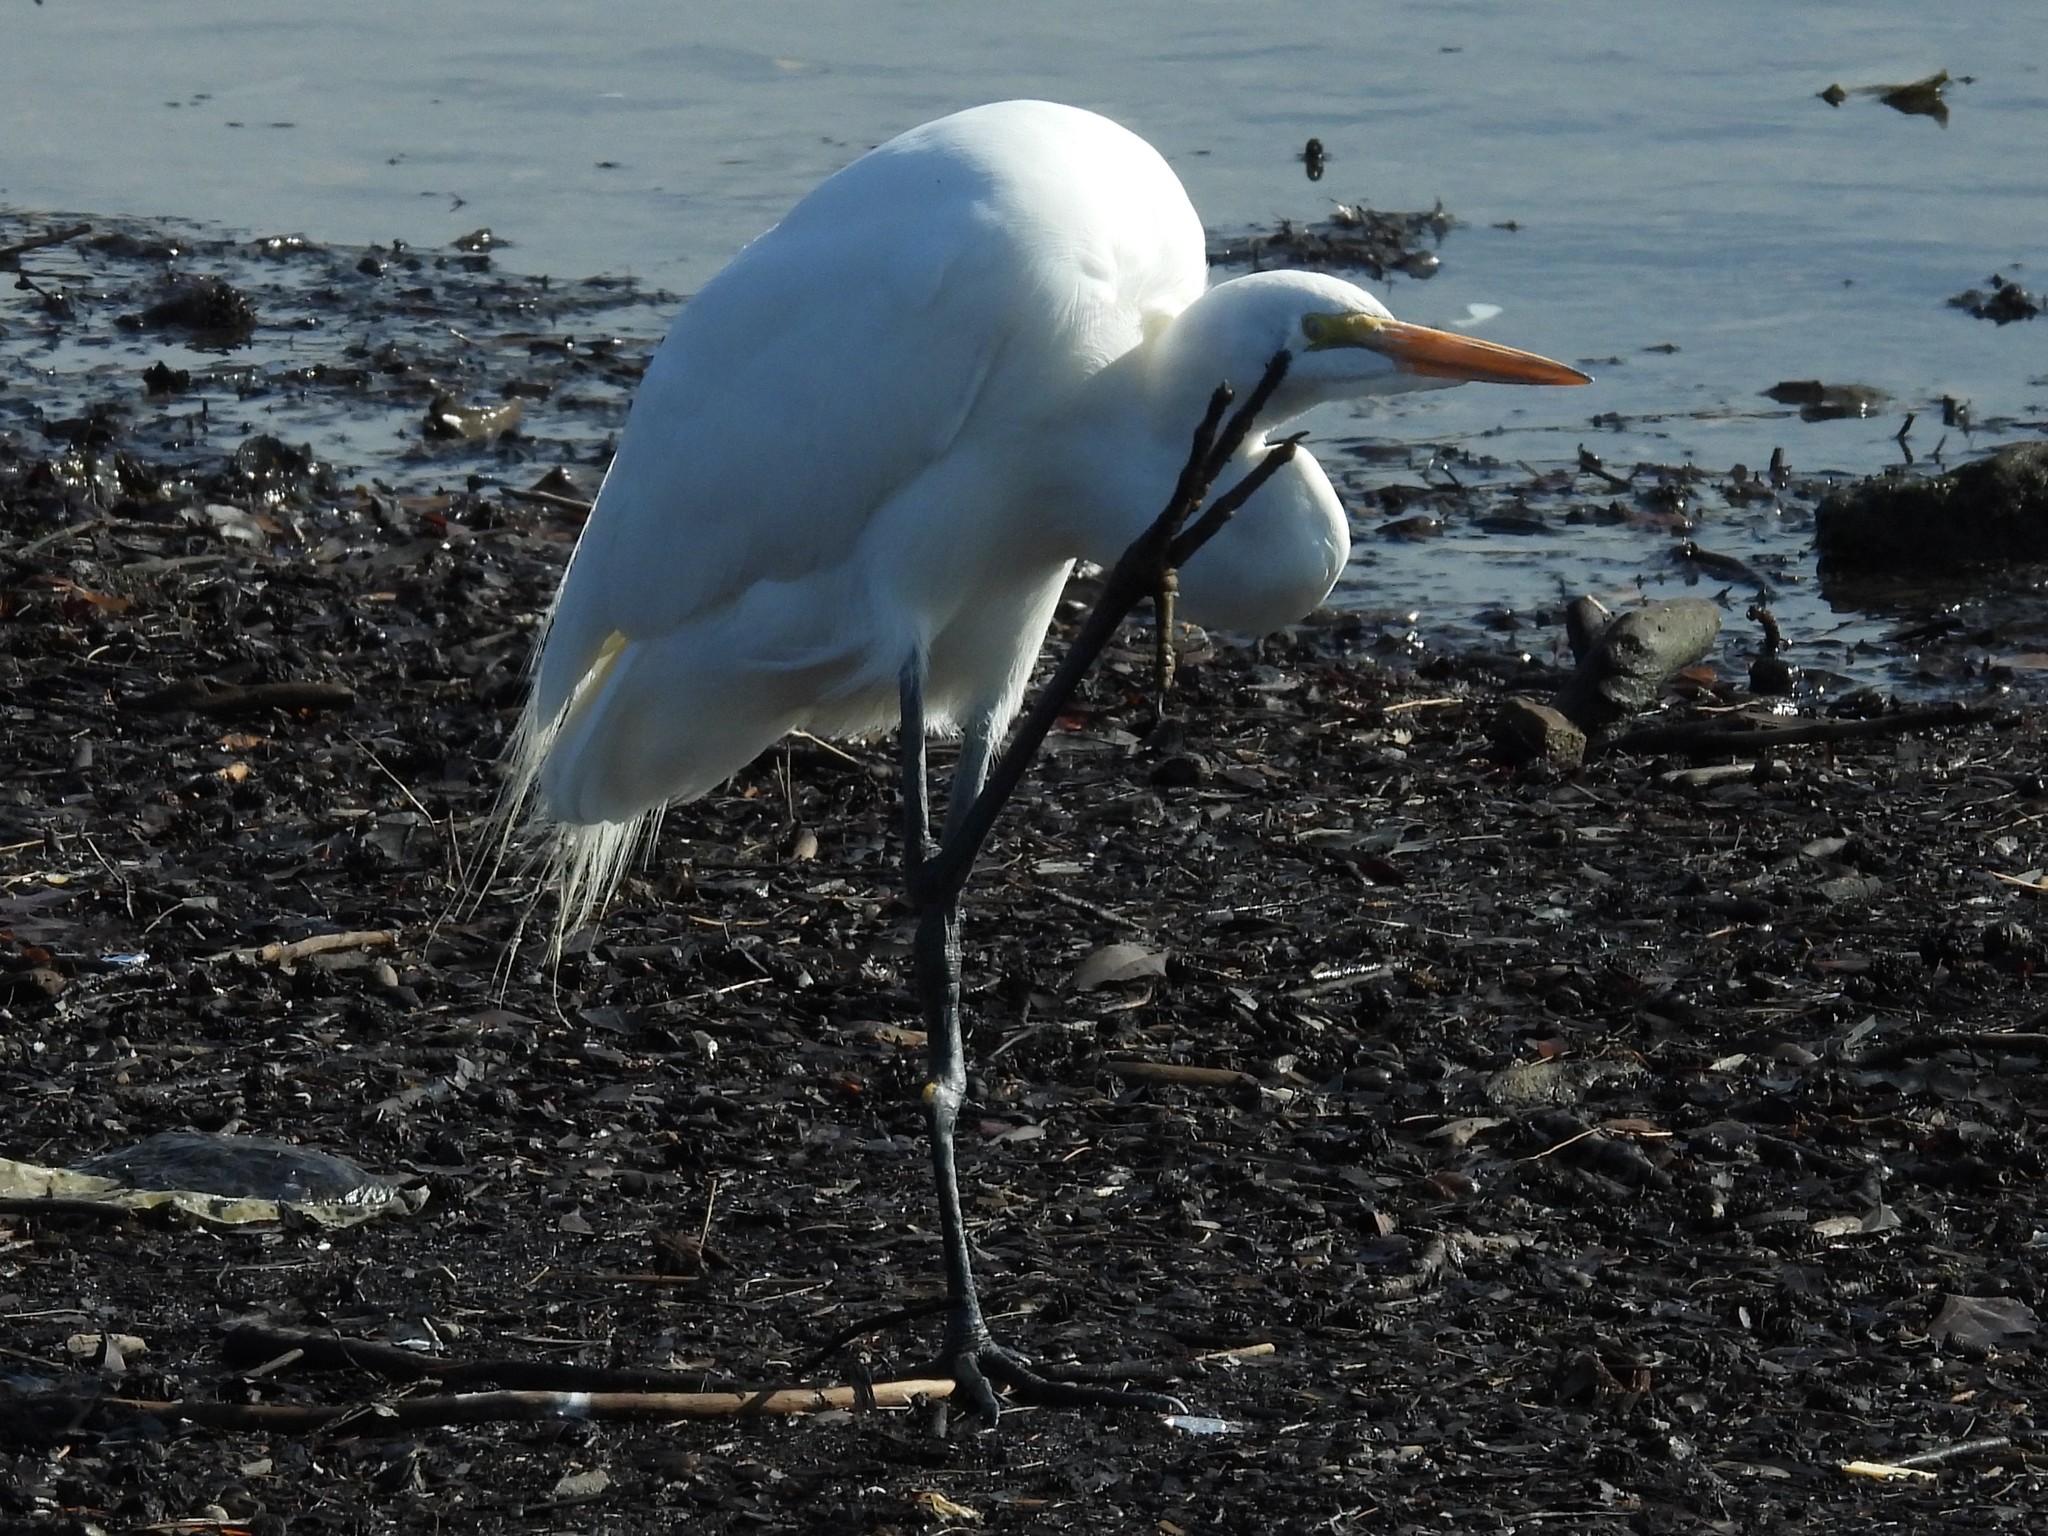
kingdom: Animalia
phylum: Chordata
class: Aves
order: Pelecaniformes
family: Ardeidae
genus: Ardea
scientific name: Ardea alba
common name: Great egret
